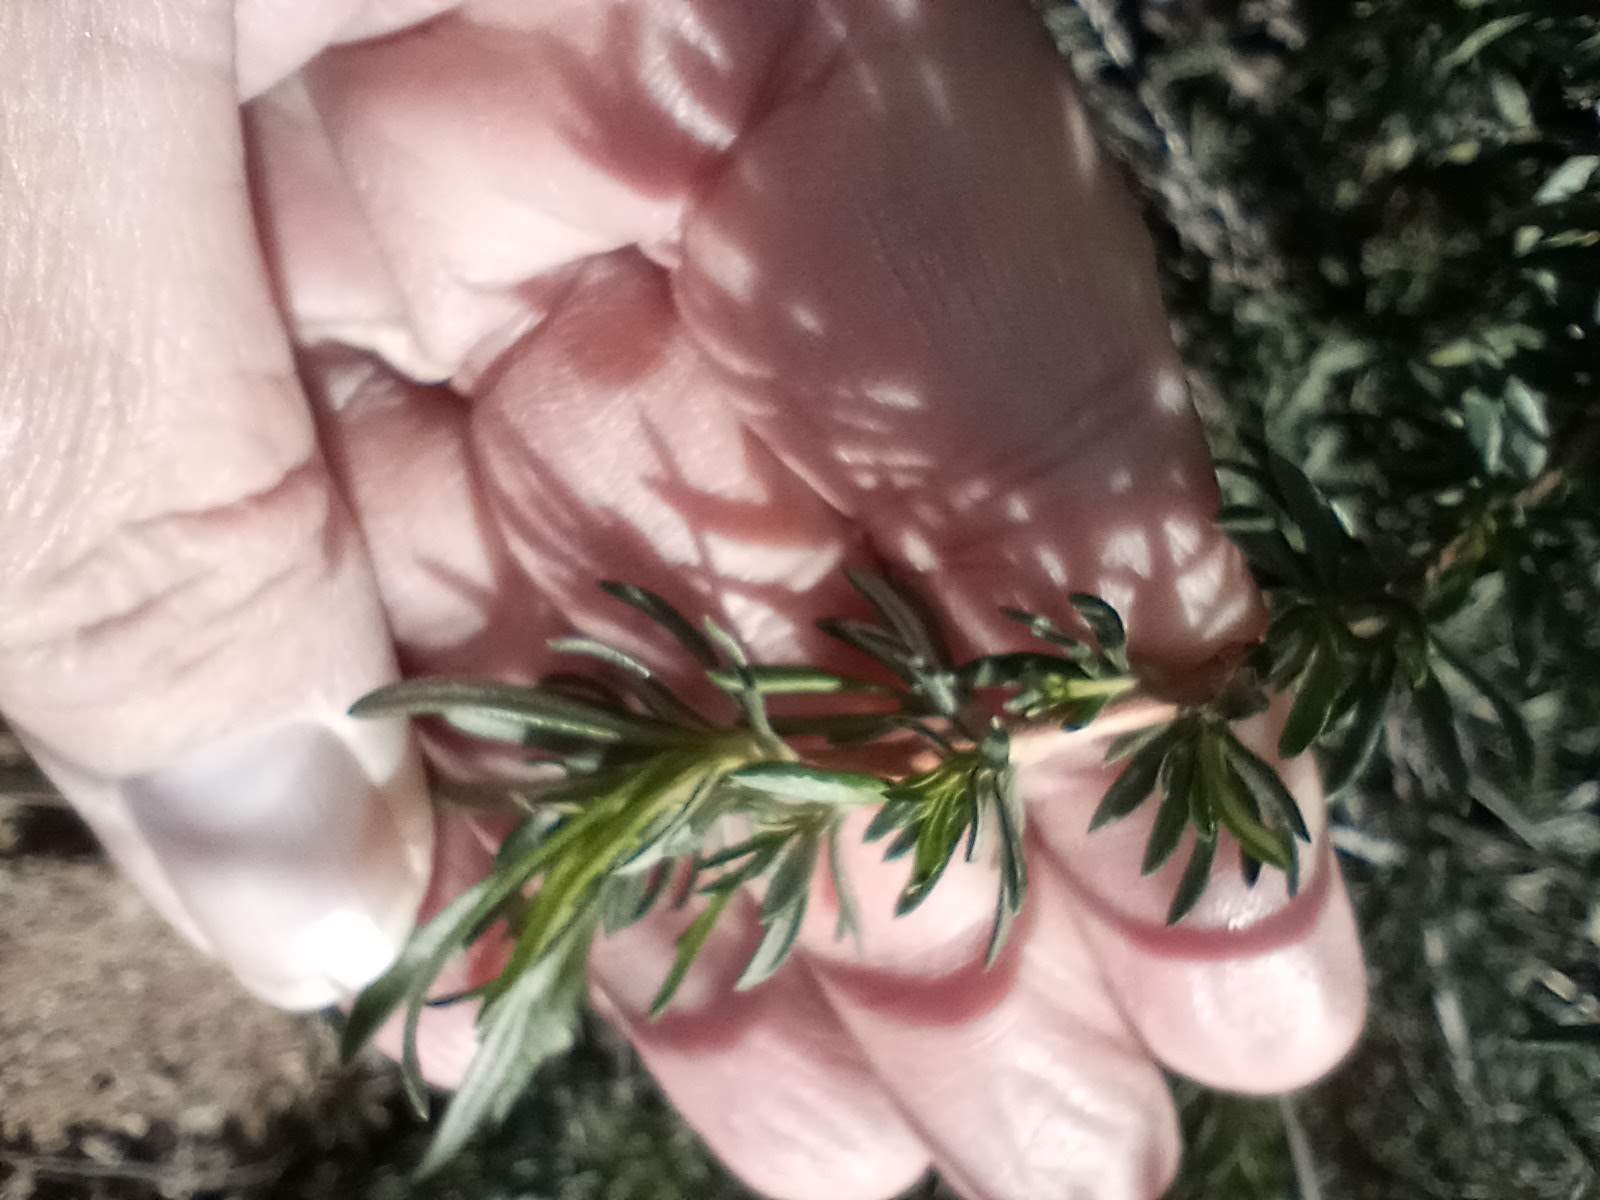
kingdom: Plantae
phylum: Tracheophyta
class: Magnoliopsida
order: Caryophyllales
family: Polygonaceae
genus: Eriogonum
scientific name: Eriogonum fasciculatum
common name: California wild buckwheat
